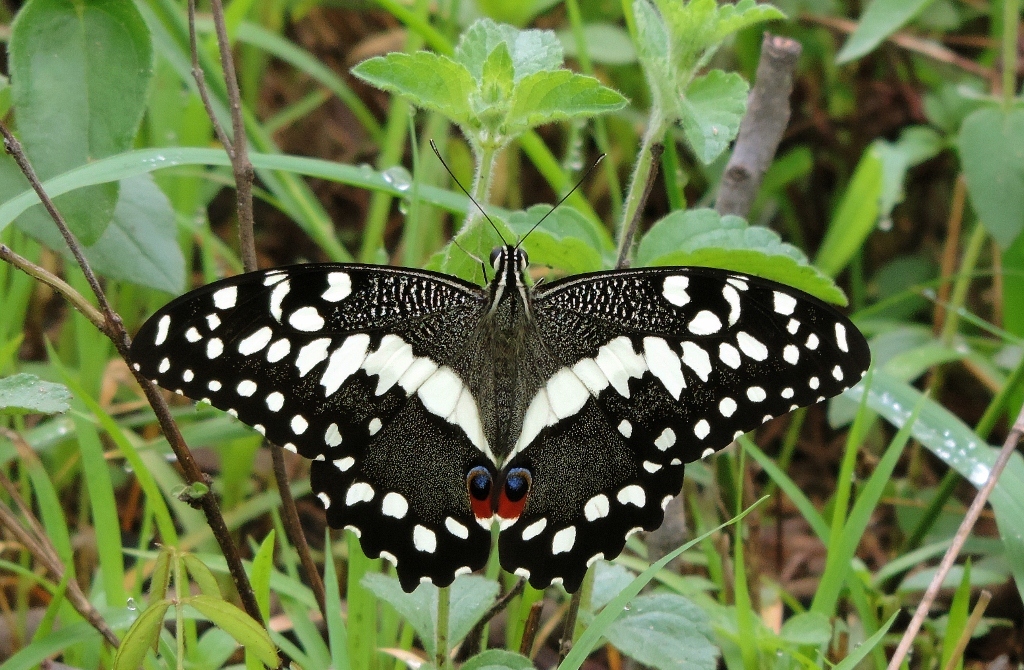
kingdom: Animalia
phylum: Arthropoda
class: Insecta
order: Lepidoptera
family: Papilionidae
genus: Papilio
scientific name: Papilio demodocus
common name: Christmas butterfly
